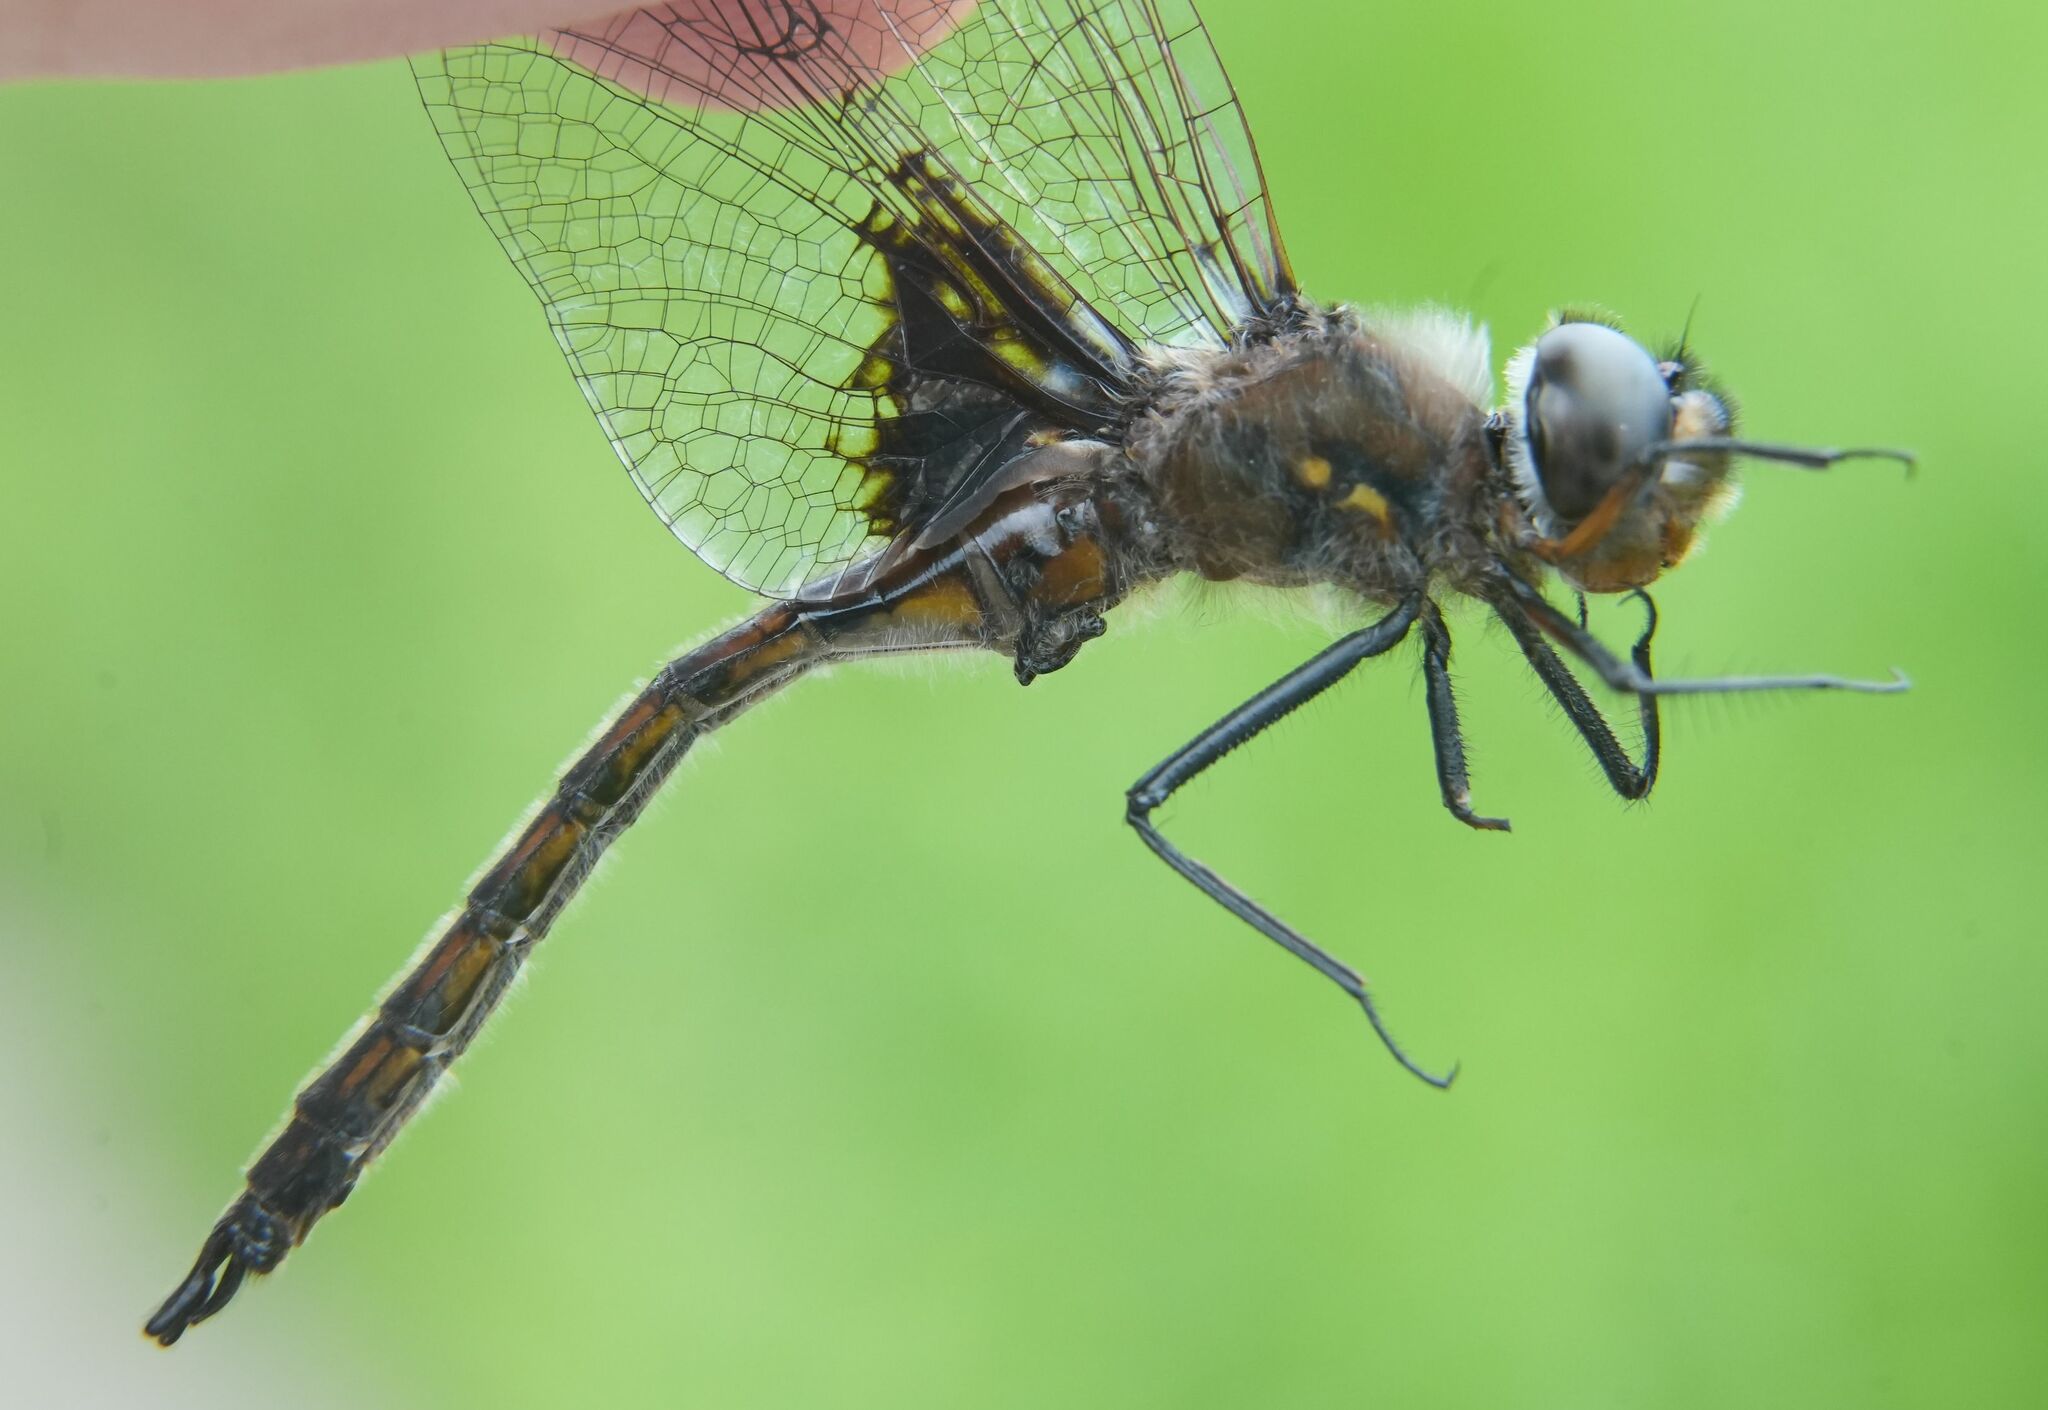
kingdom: Animalia
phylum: Arthropoda
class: Insecta
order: Odonata
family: Corduliidae
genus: Epitheca
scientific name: Epitheca cynosura
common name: Common baskettail
